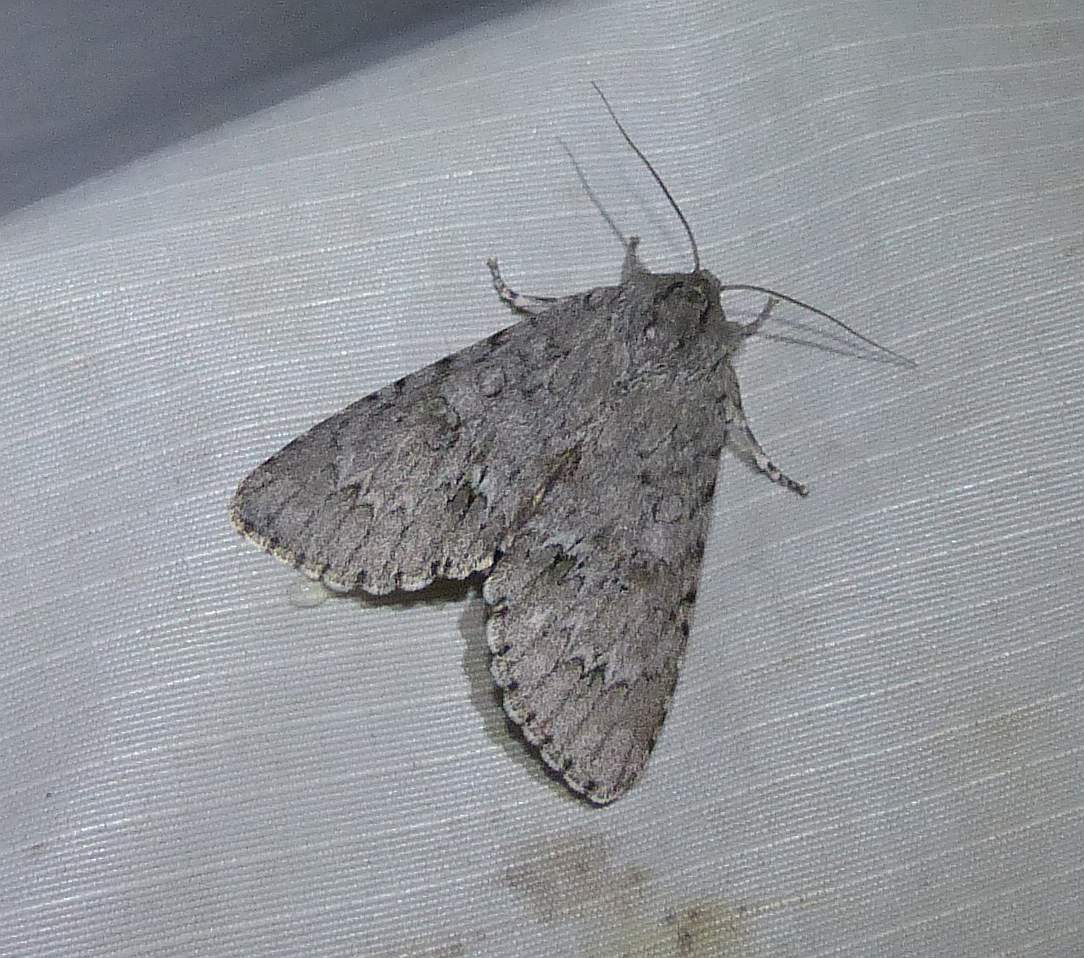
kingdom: Animalia
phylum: Arthropoda
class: Insecta
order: Lepidoptera
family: Noctuidae
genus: Acronicta
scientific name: Acronicta americana
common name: American dagger
